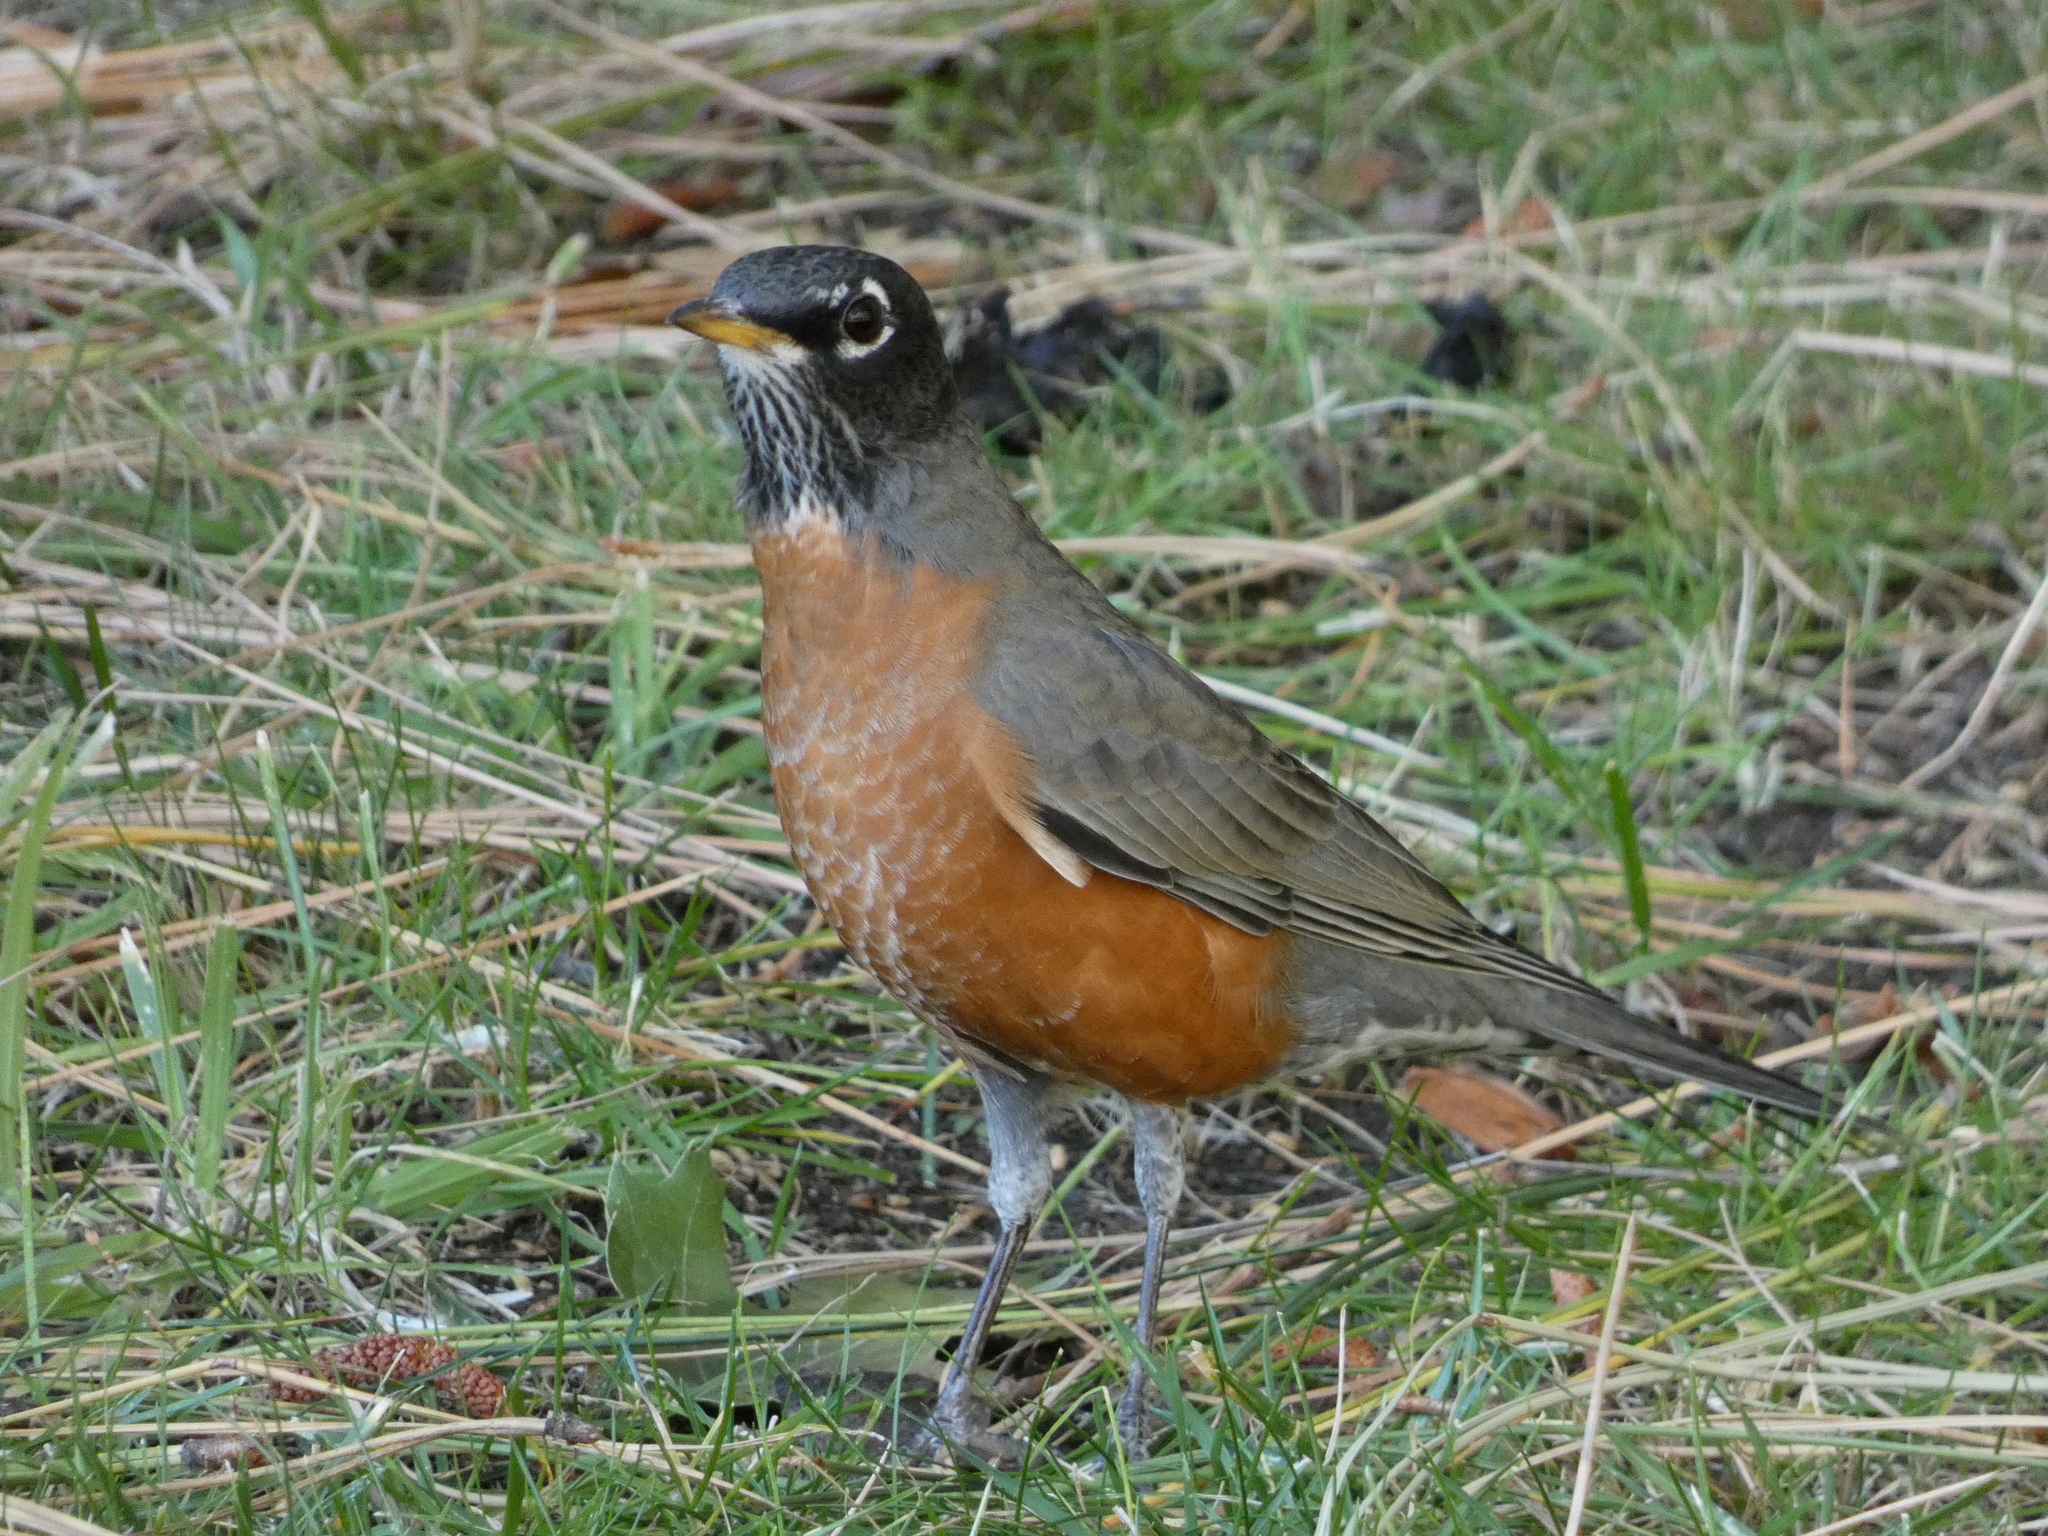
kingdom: Animalia
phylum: Chordata
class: Aves
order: Passeriformes
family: Turdidae
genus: Turdus
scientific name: Turdus migratorius
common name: American robin
